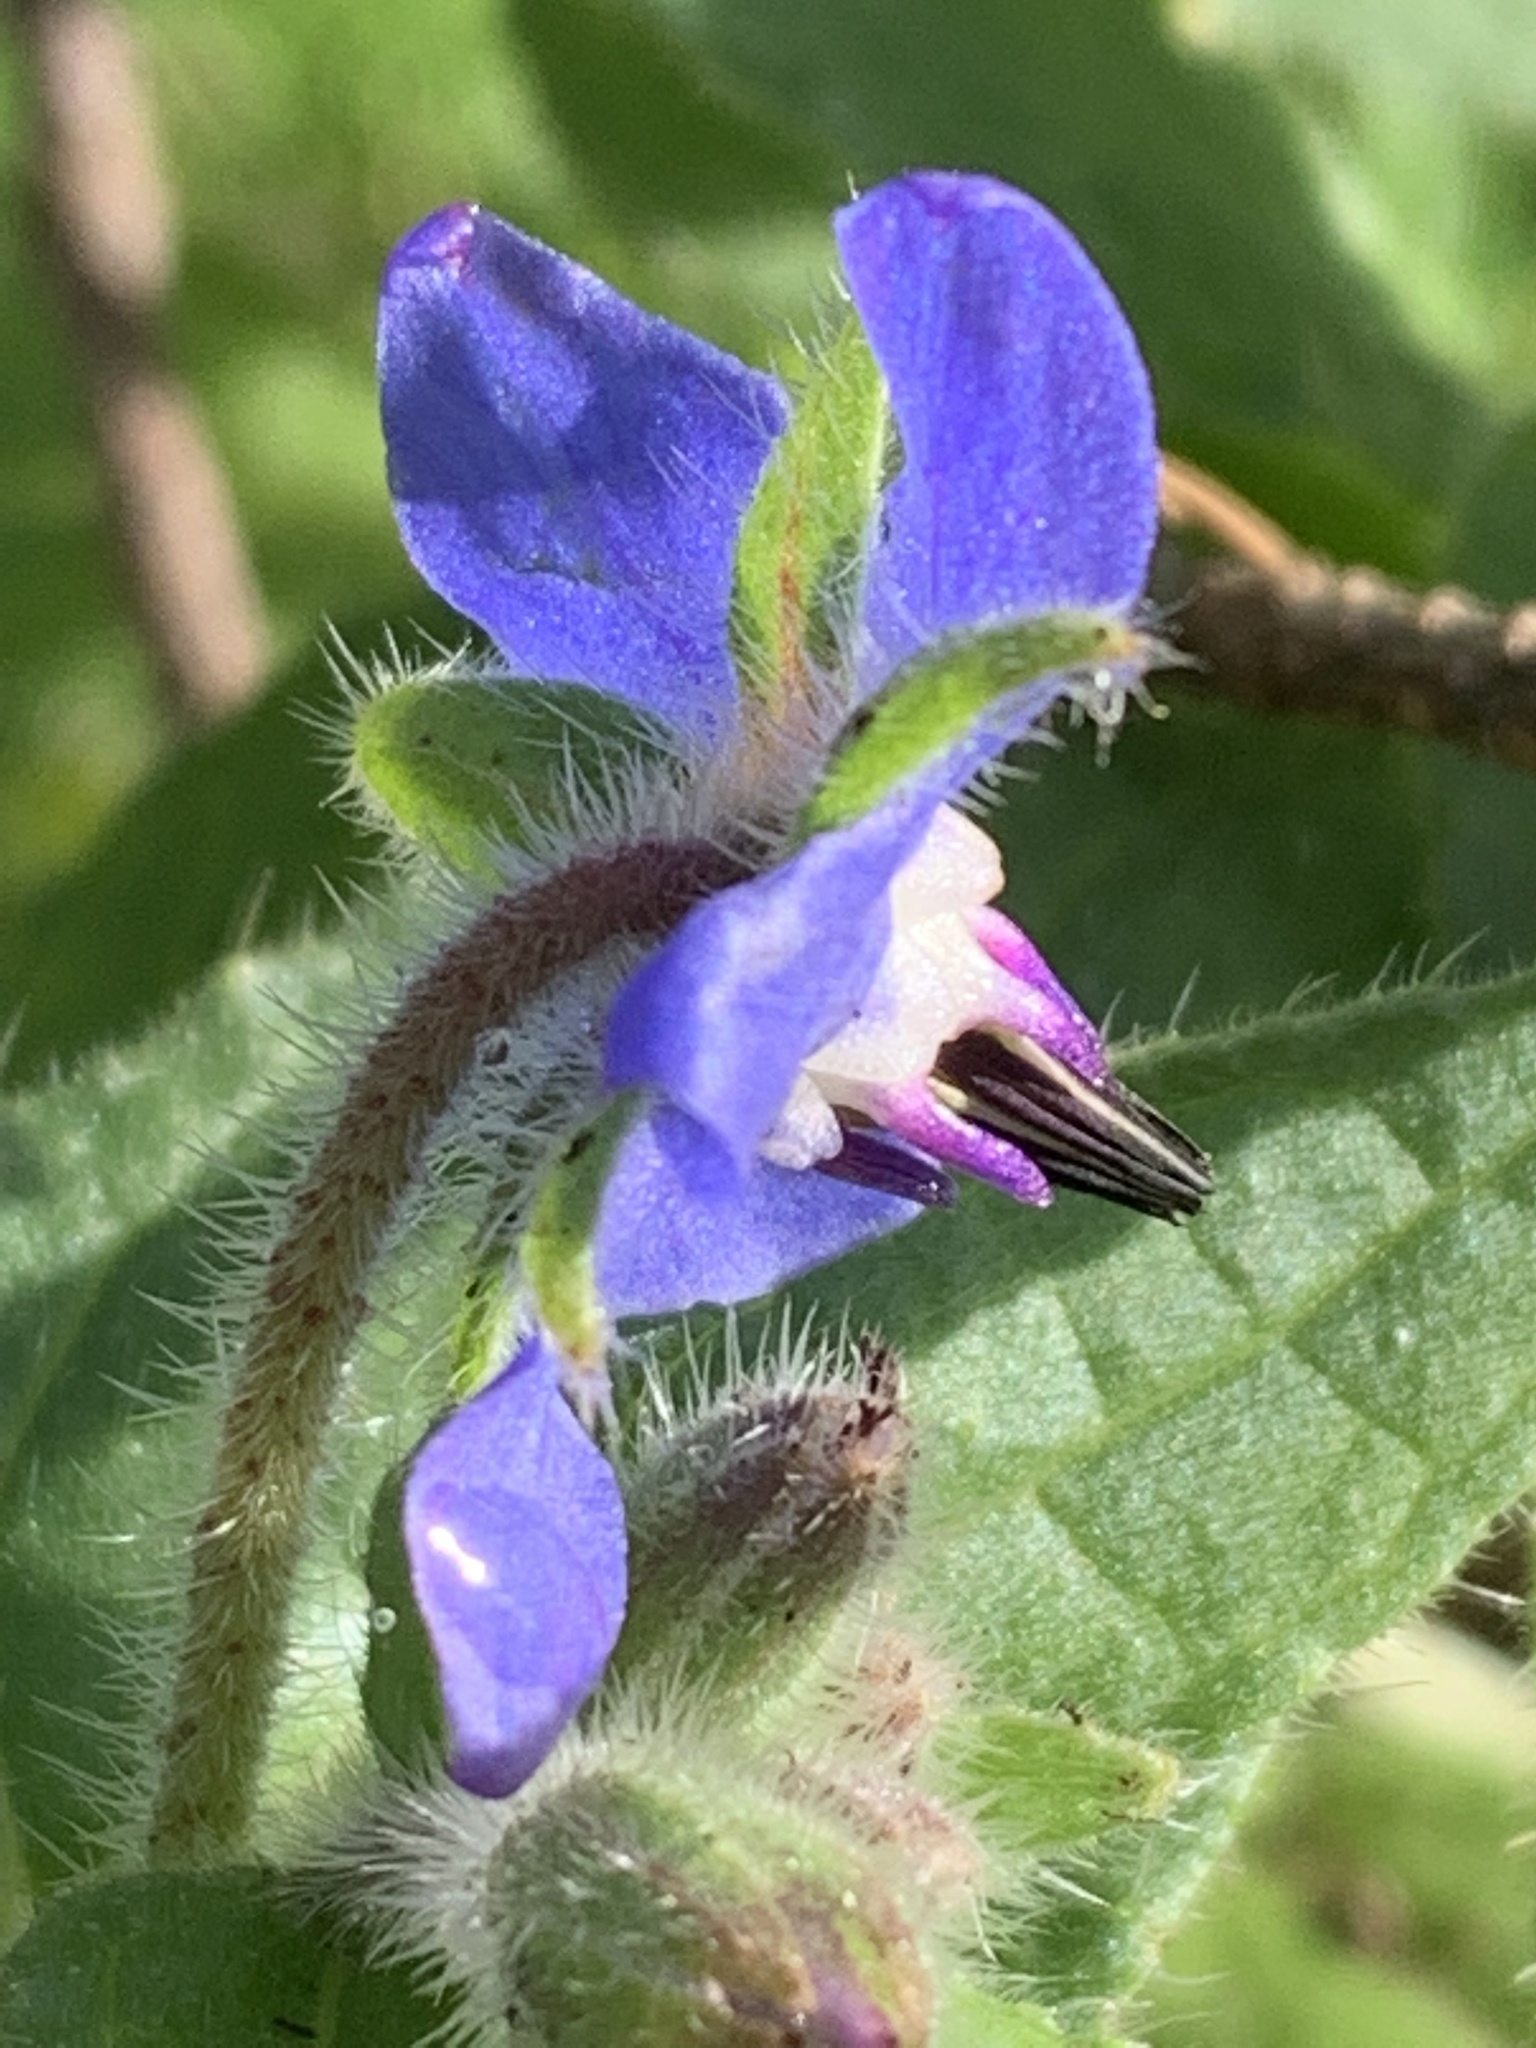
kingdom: Plantae
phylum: Tracheophyta
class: Magnoliopsida
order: Boraginales
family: Boraginaceae
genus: Borago
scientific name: Borago officinalis
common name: Borage
